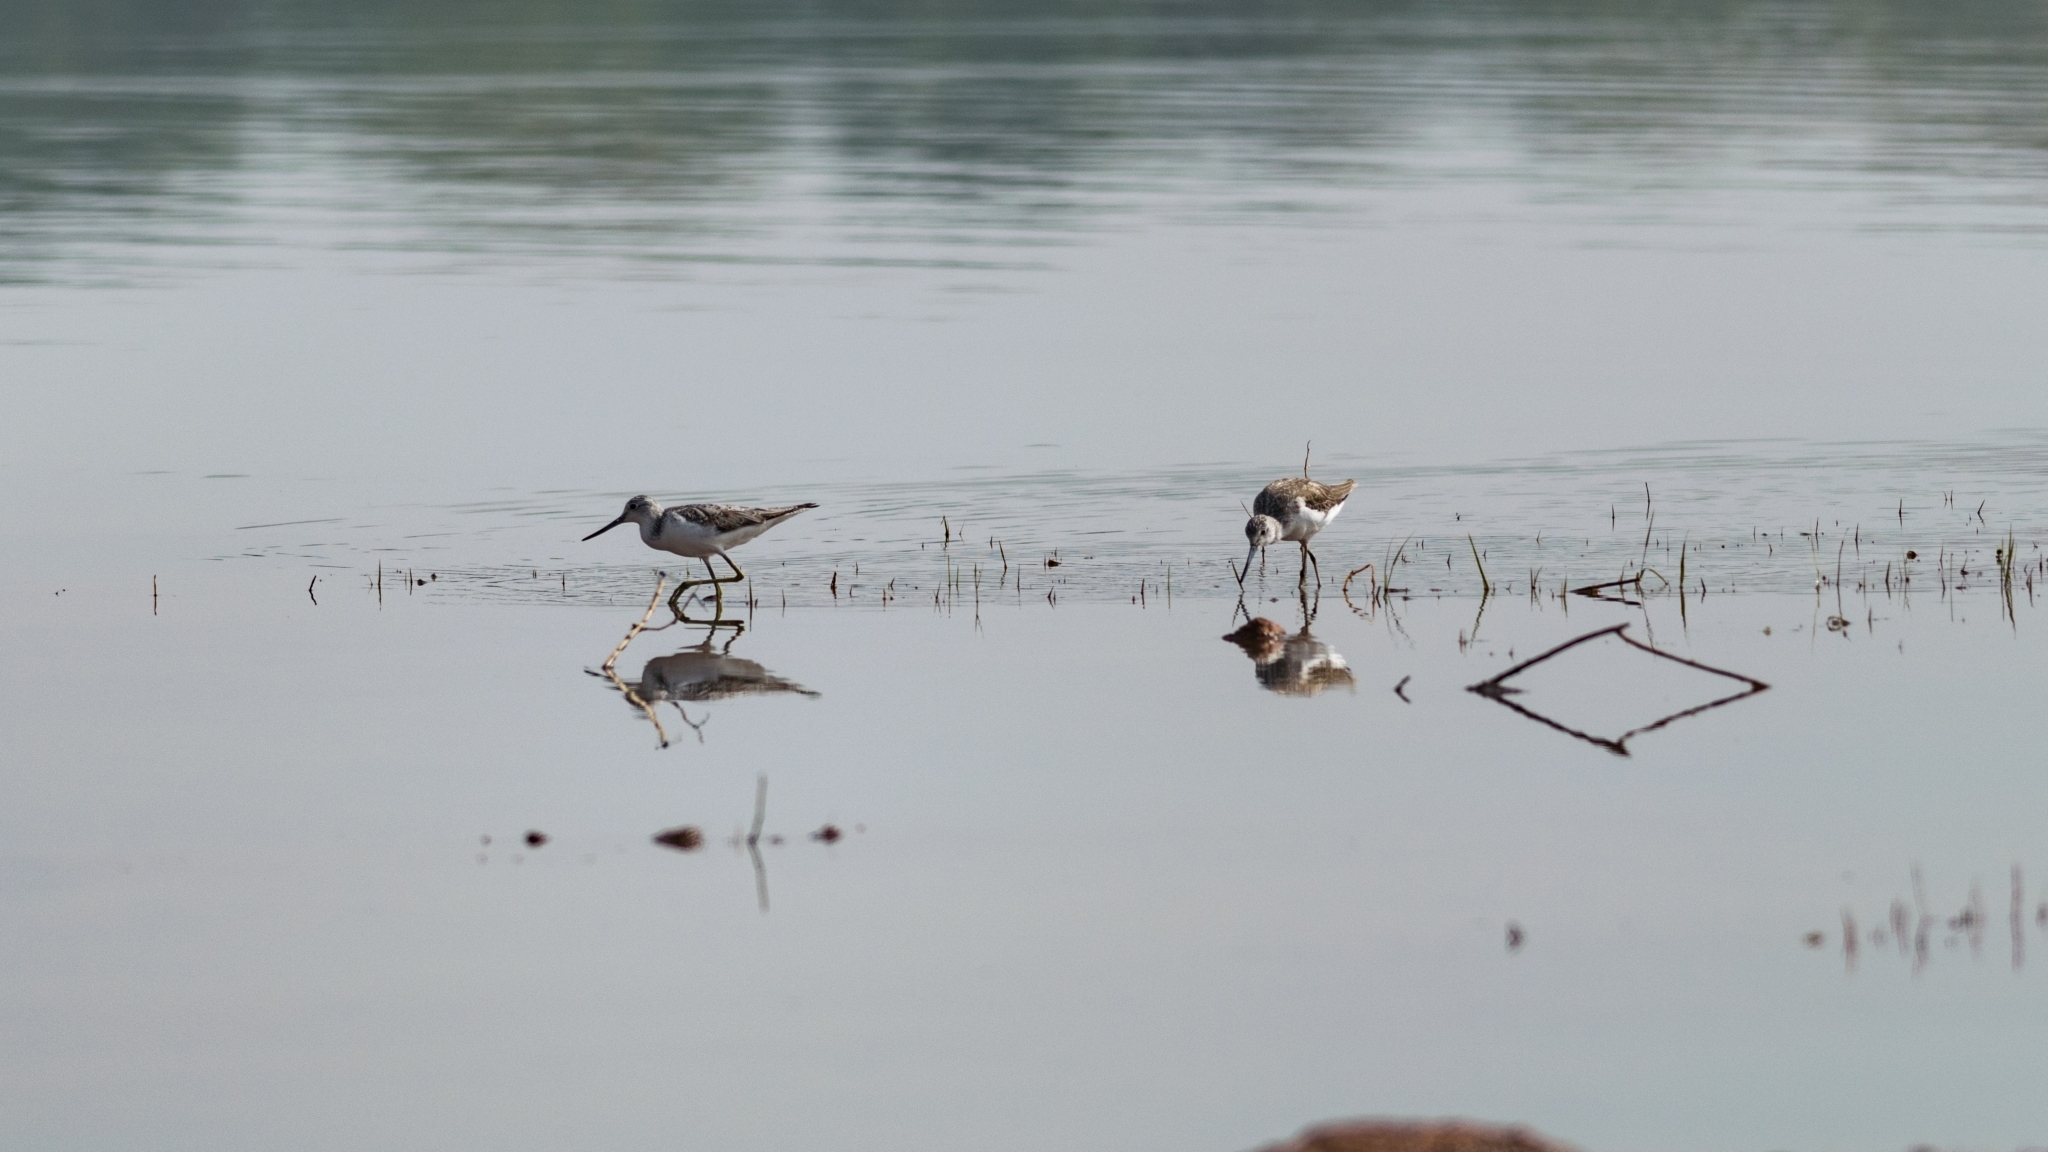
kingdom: Animalia
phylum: Chordata
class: Aves
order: Charadriiformes
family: Scolopacidae
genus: Tringa
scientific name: Tringa nebularia
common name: Common greenshank
